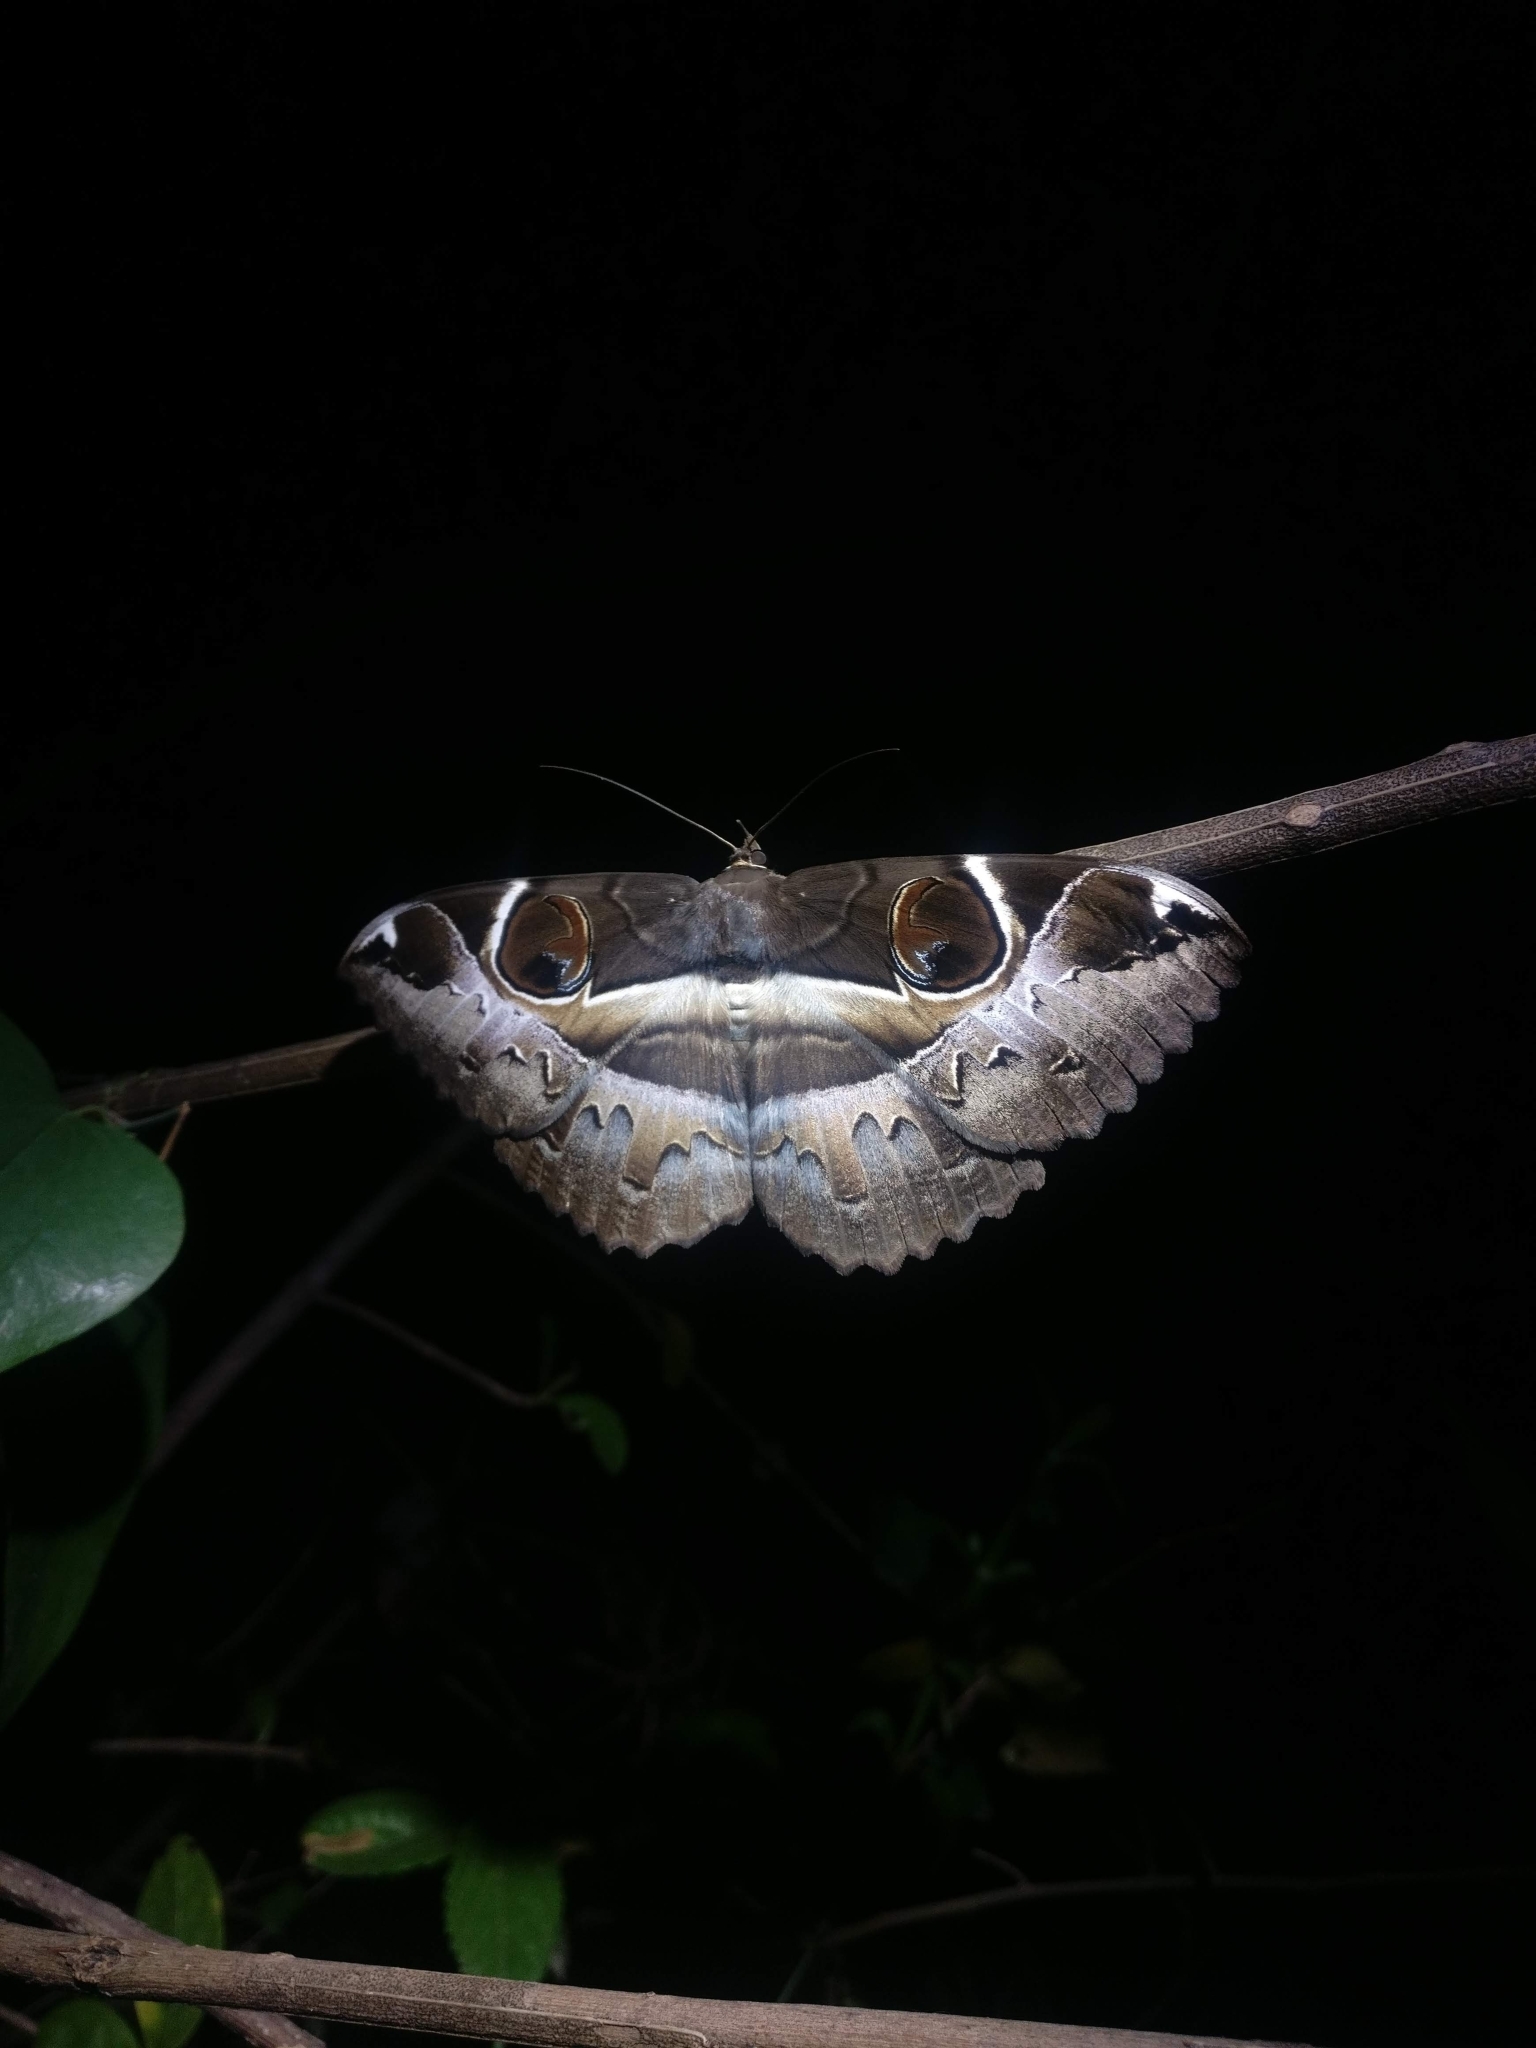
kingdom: Animalia
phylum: Arthropoda
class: Insecta
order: Lepidoptera
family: Erebidae
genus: Erebus
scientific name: Erebus ephesperis
